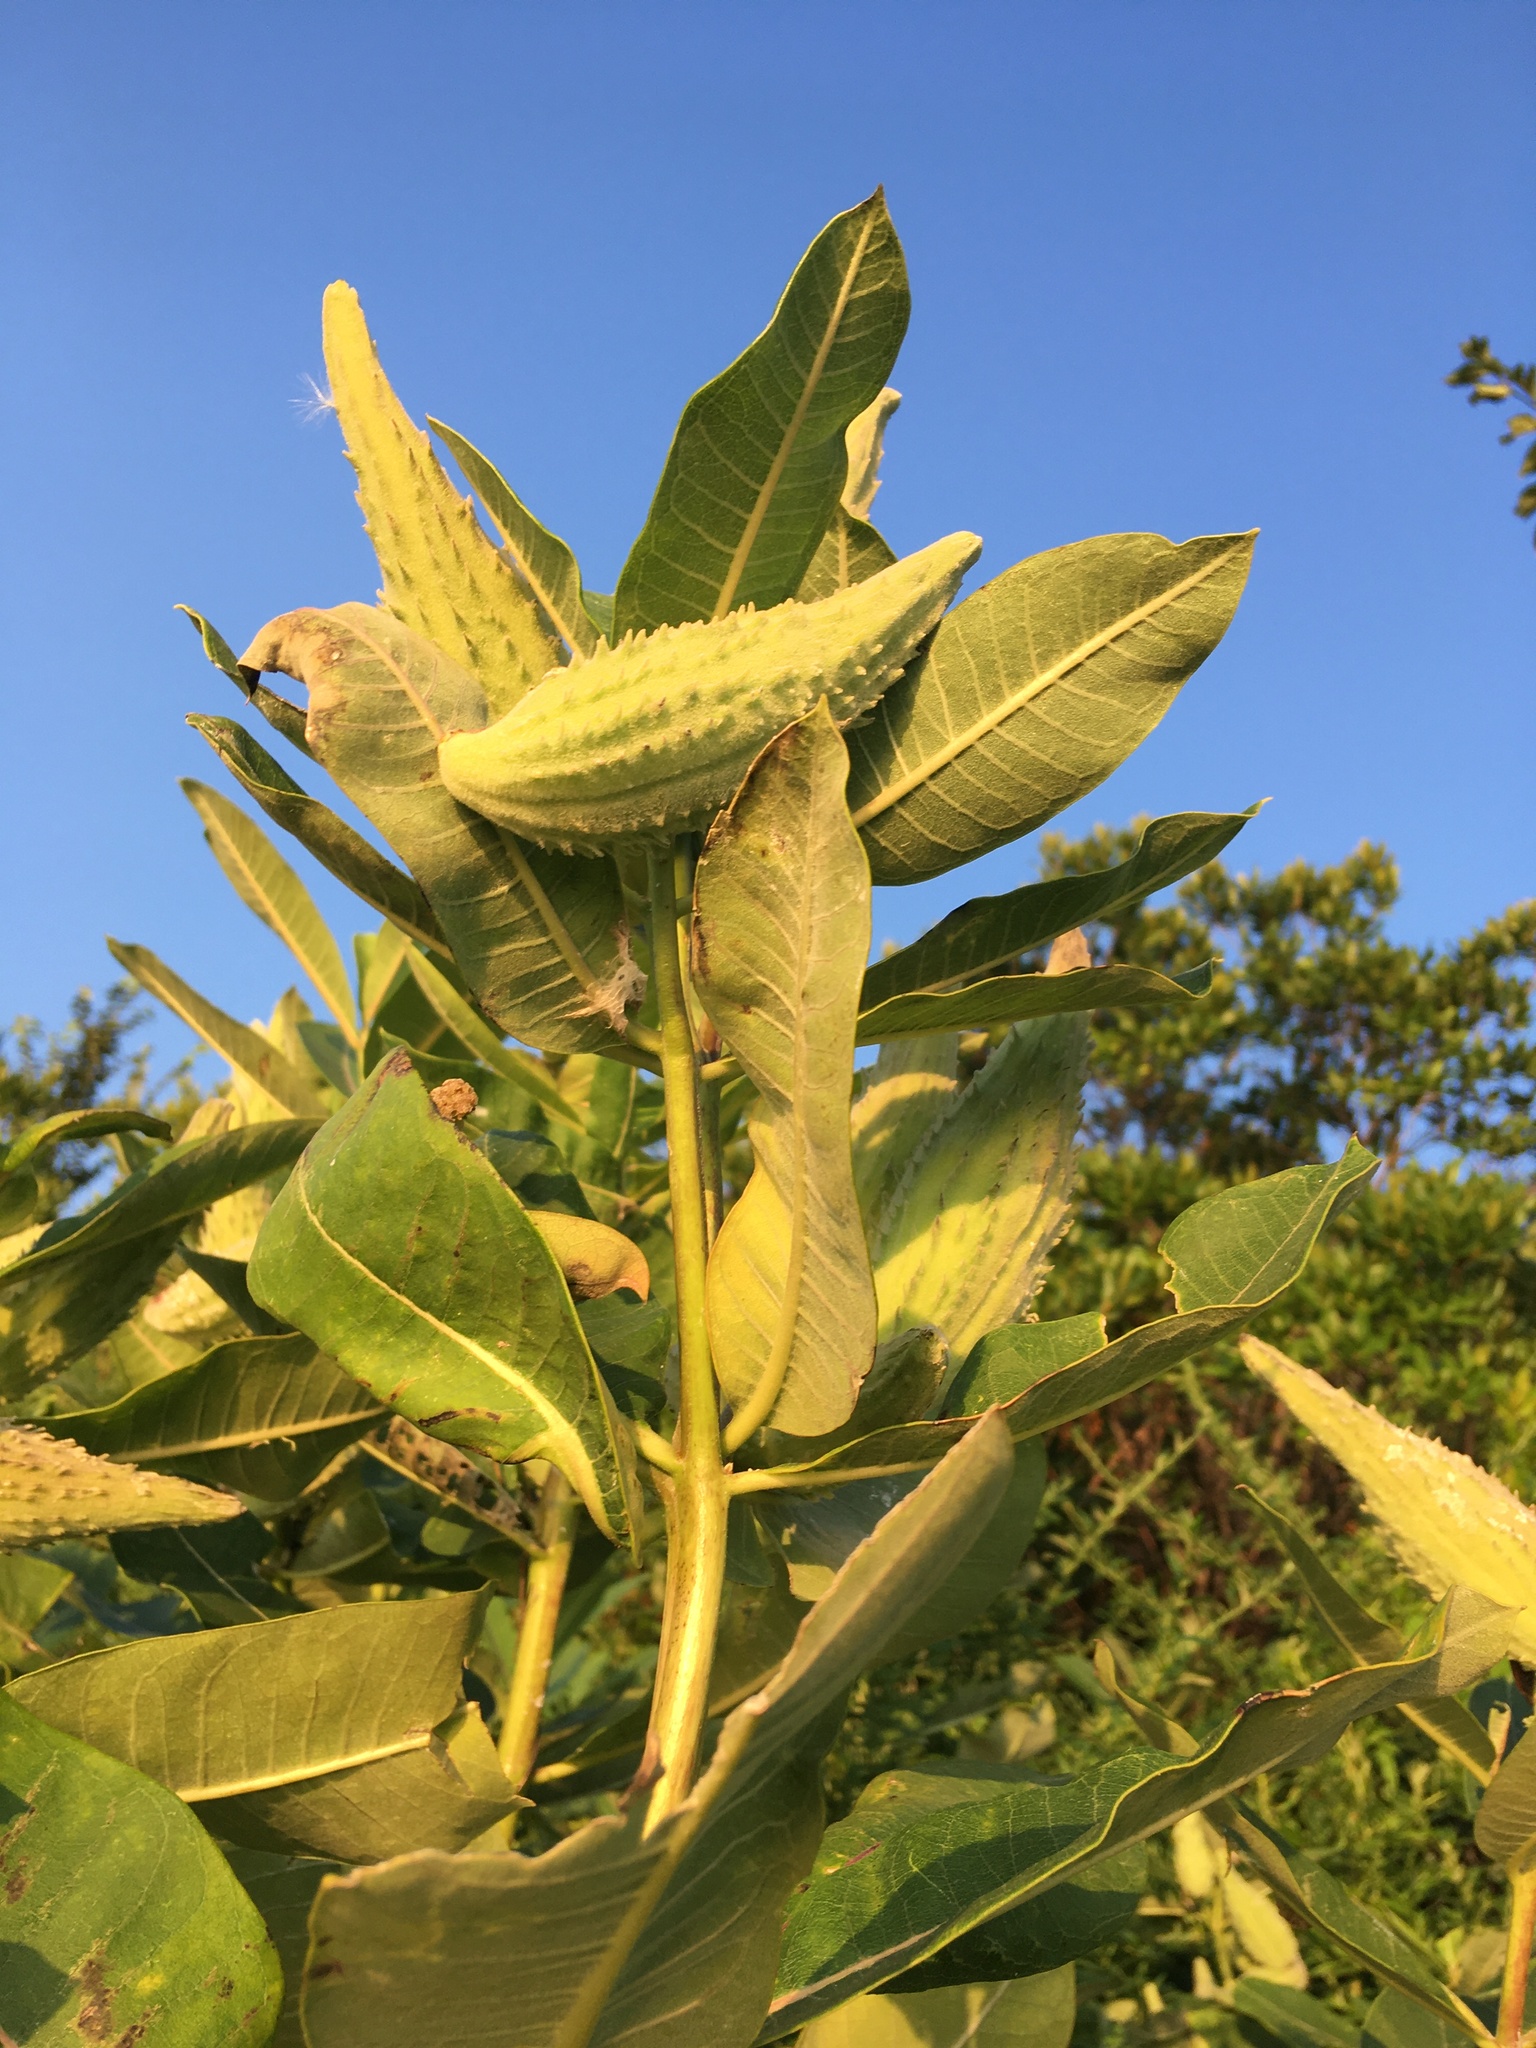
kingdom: Plantae
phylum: Tracheophyta
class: Magnoliopsida
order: Gentianales
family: Apocynaceae
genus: Asclepias
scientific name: Asclepias syriaca
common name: Common milkweed
